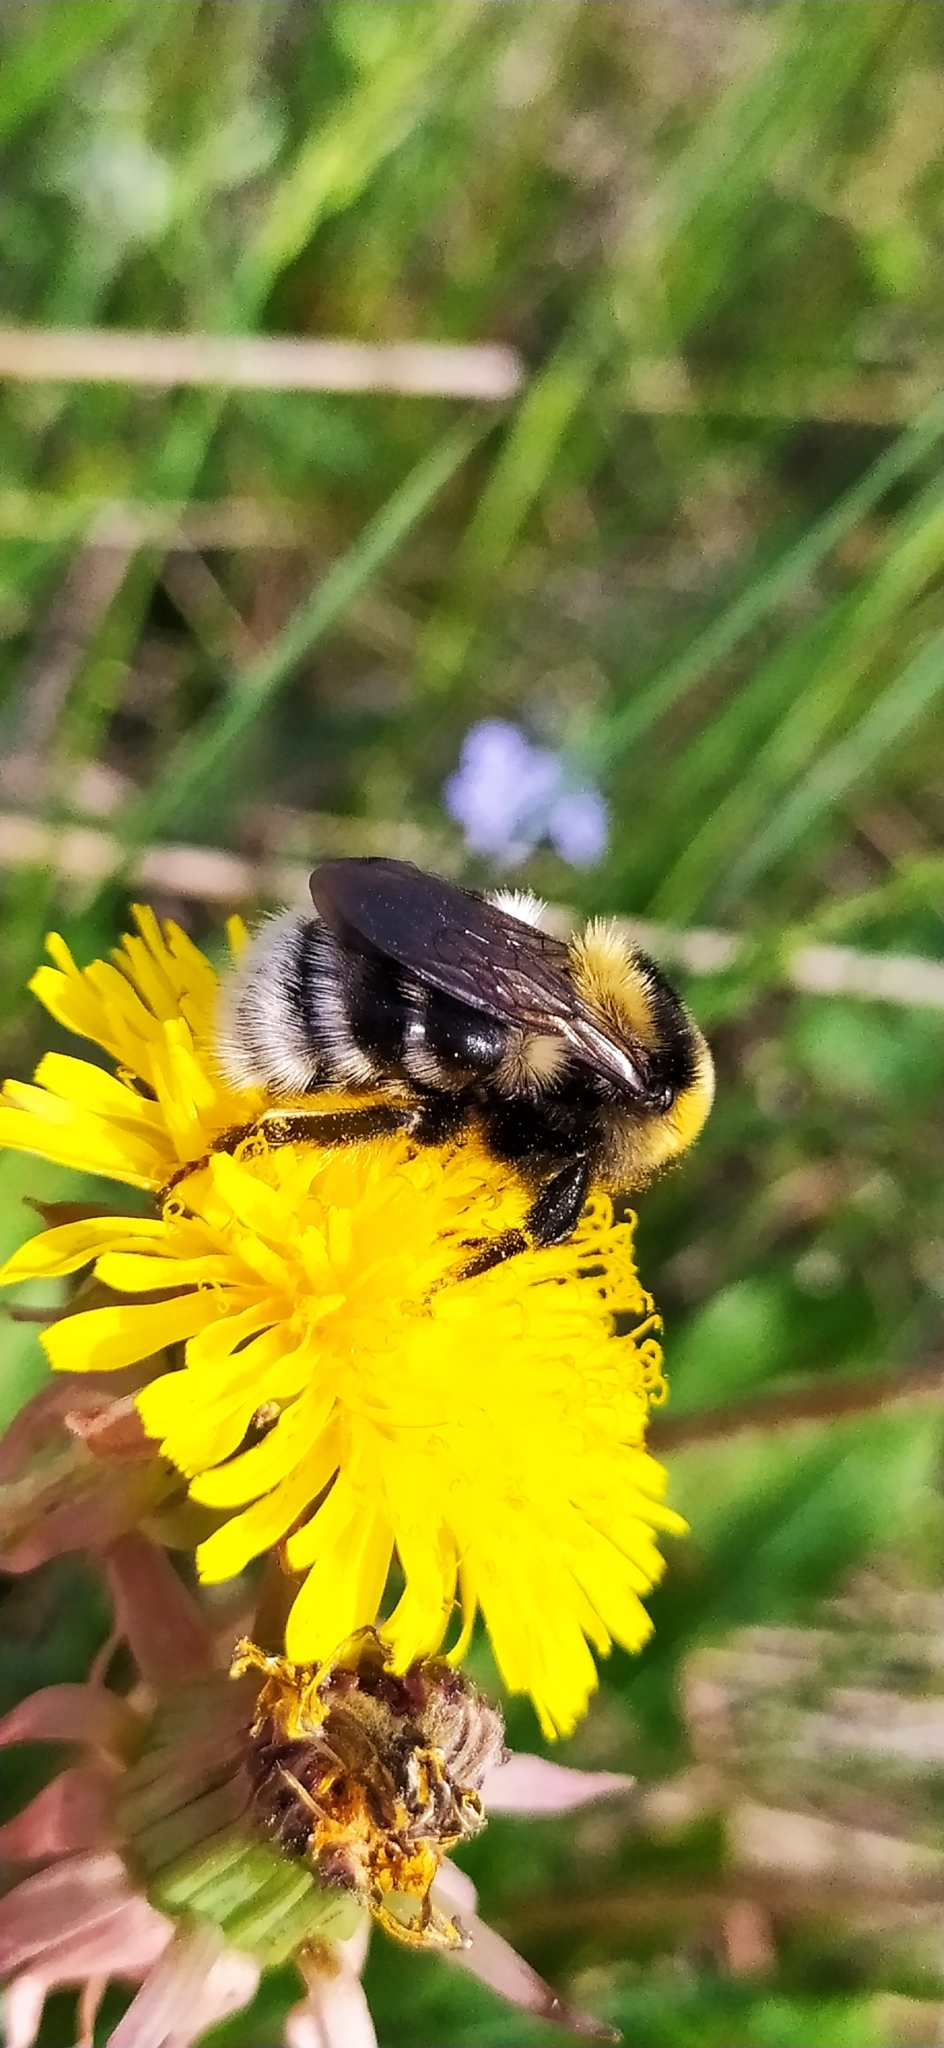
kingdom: Animalia
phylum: Arthropoda
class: Insecta
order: Hymenoptera
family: Apidae
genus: Bombus
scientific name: Bombus semenoviellus
